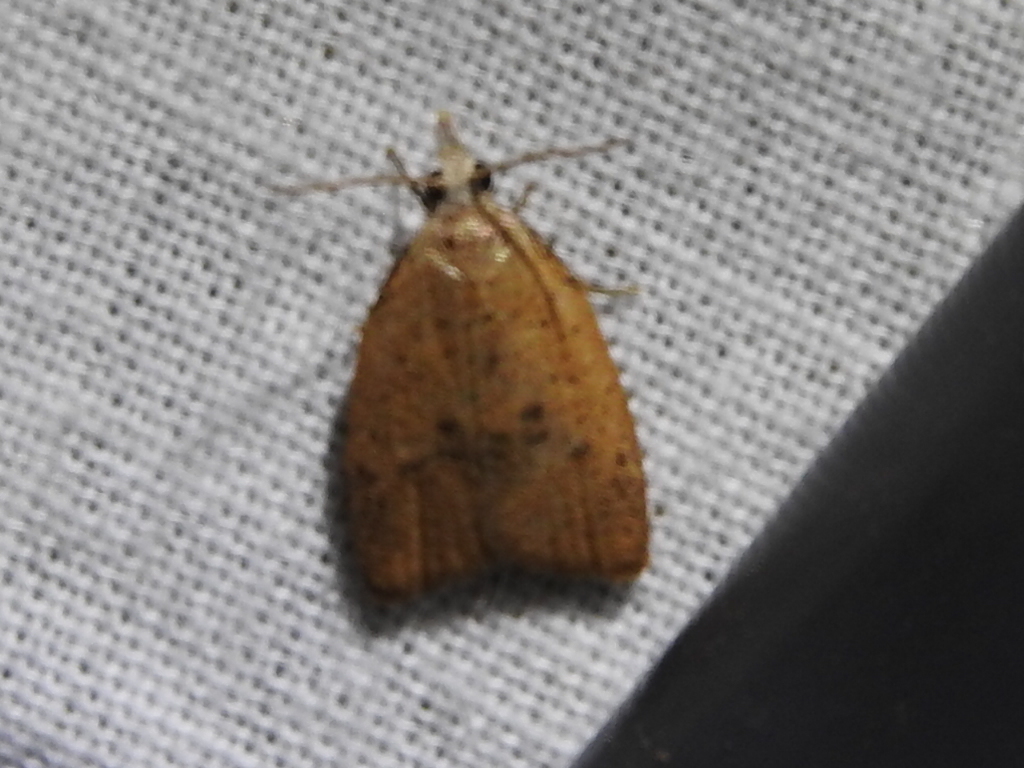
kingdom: Animalia
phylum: Arthropoda
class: Insecta
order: Lepidoptera
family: Tortricidae
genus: Sparganothoides
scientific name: Sparganothoides lentiginosana
